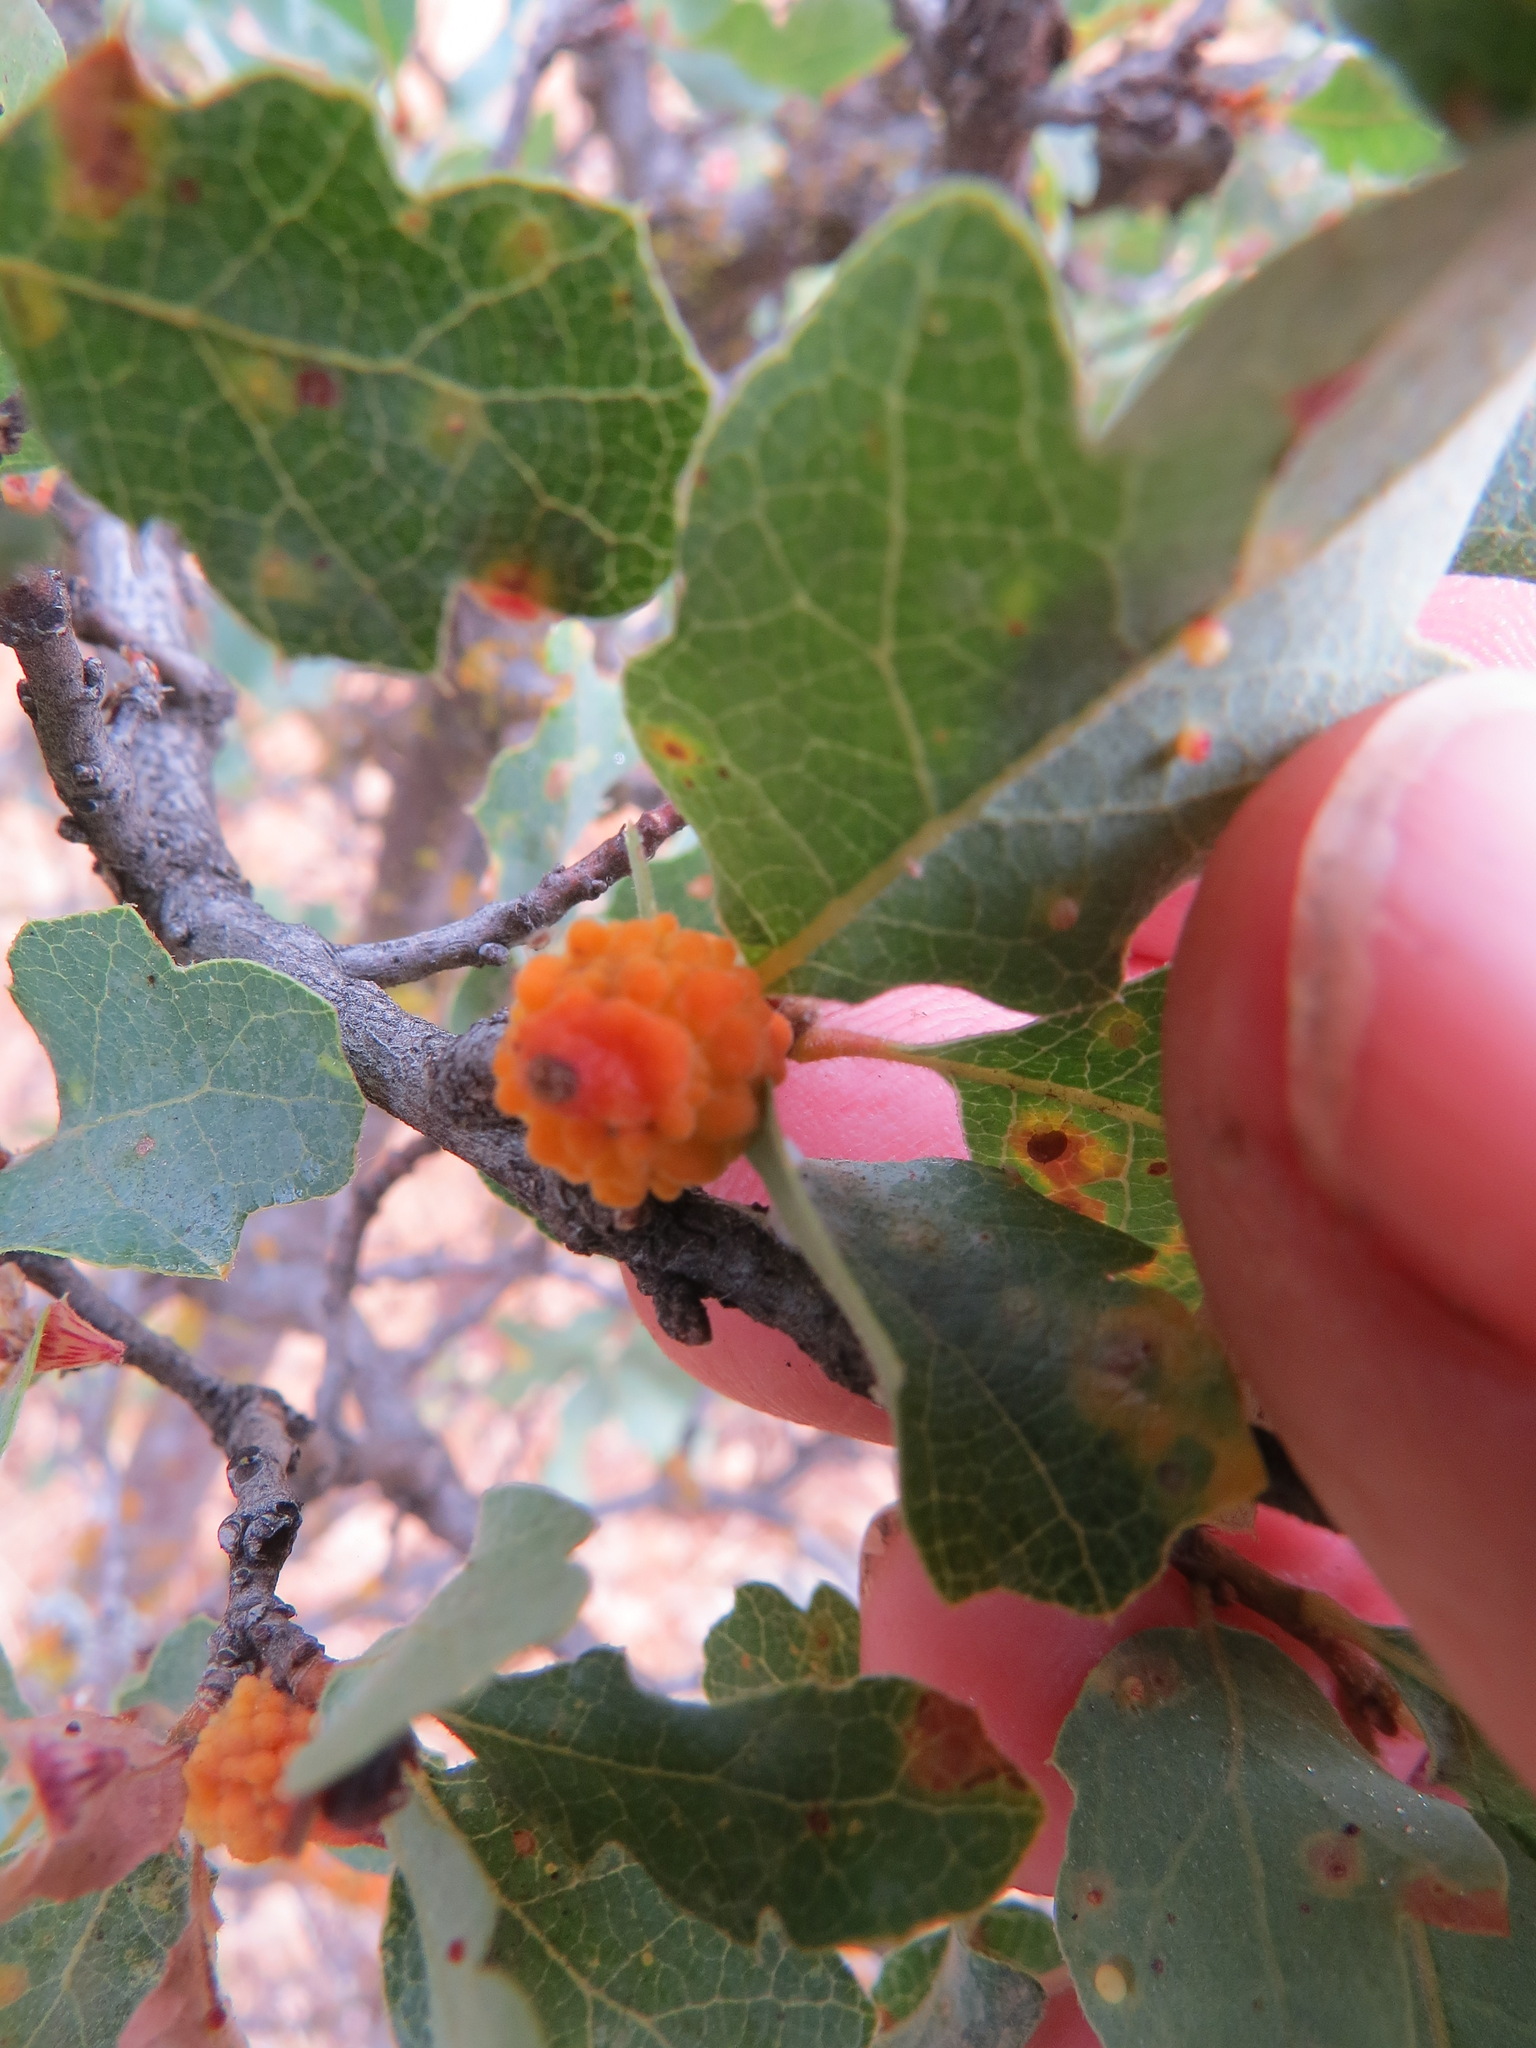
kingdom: Animalia
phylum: Arthropoda
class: Insecta
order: Hymenoptera
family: Cynipidae
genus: Burnettweldia
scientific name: Burnettweldia
